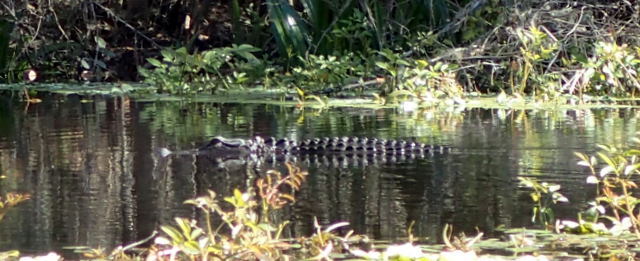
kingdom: Animalia
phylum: Chordata
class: Crocodylia
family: Alligatoridae
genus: Alligator
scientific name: Alligator mississippiensis
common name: American alligator
